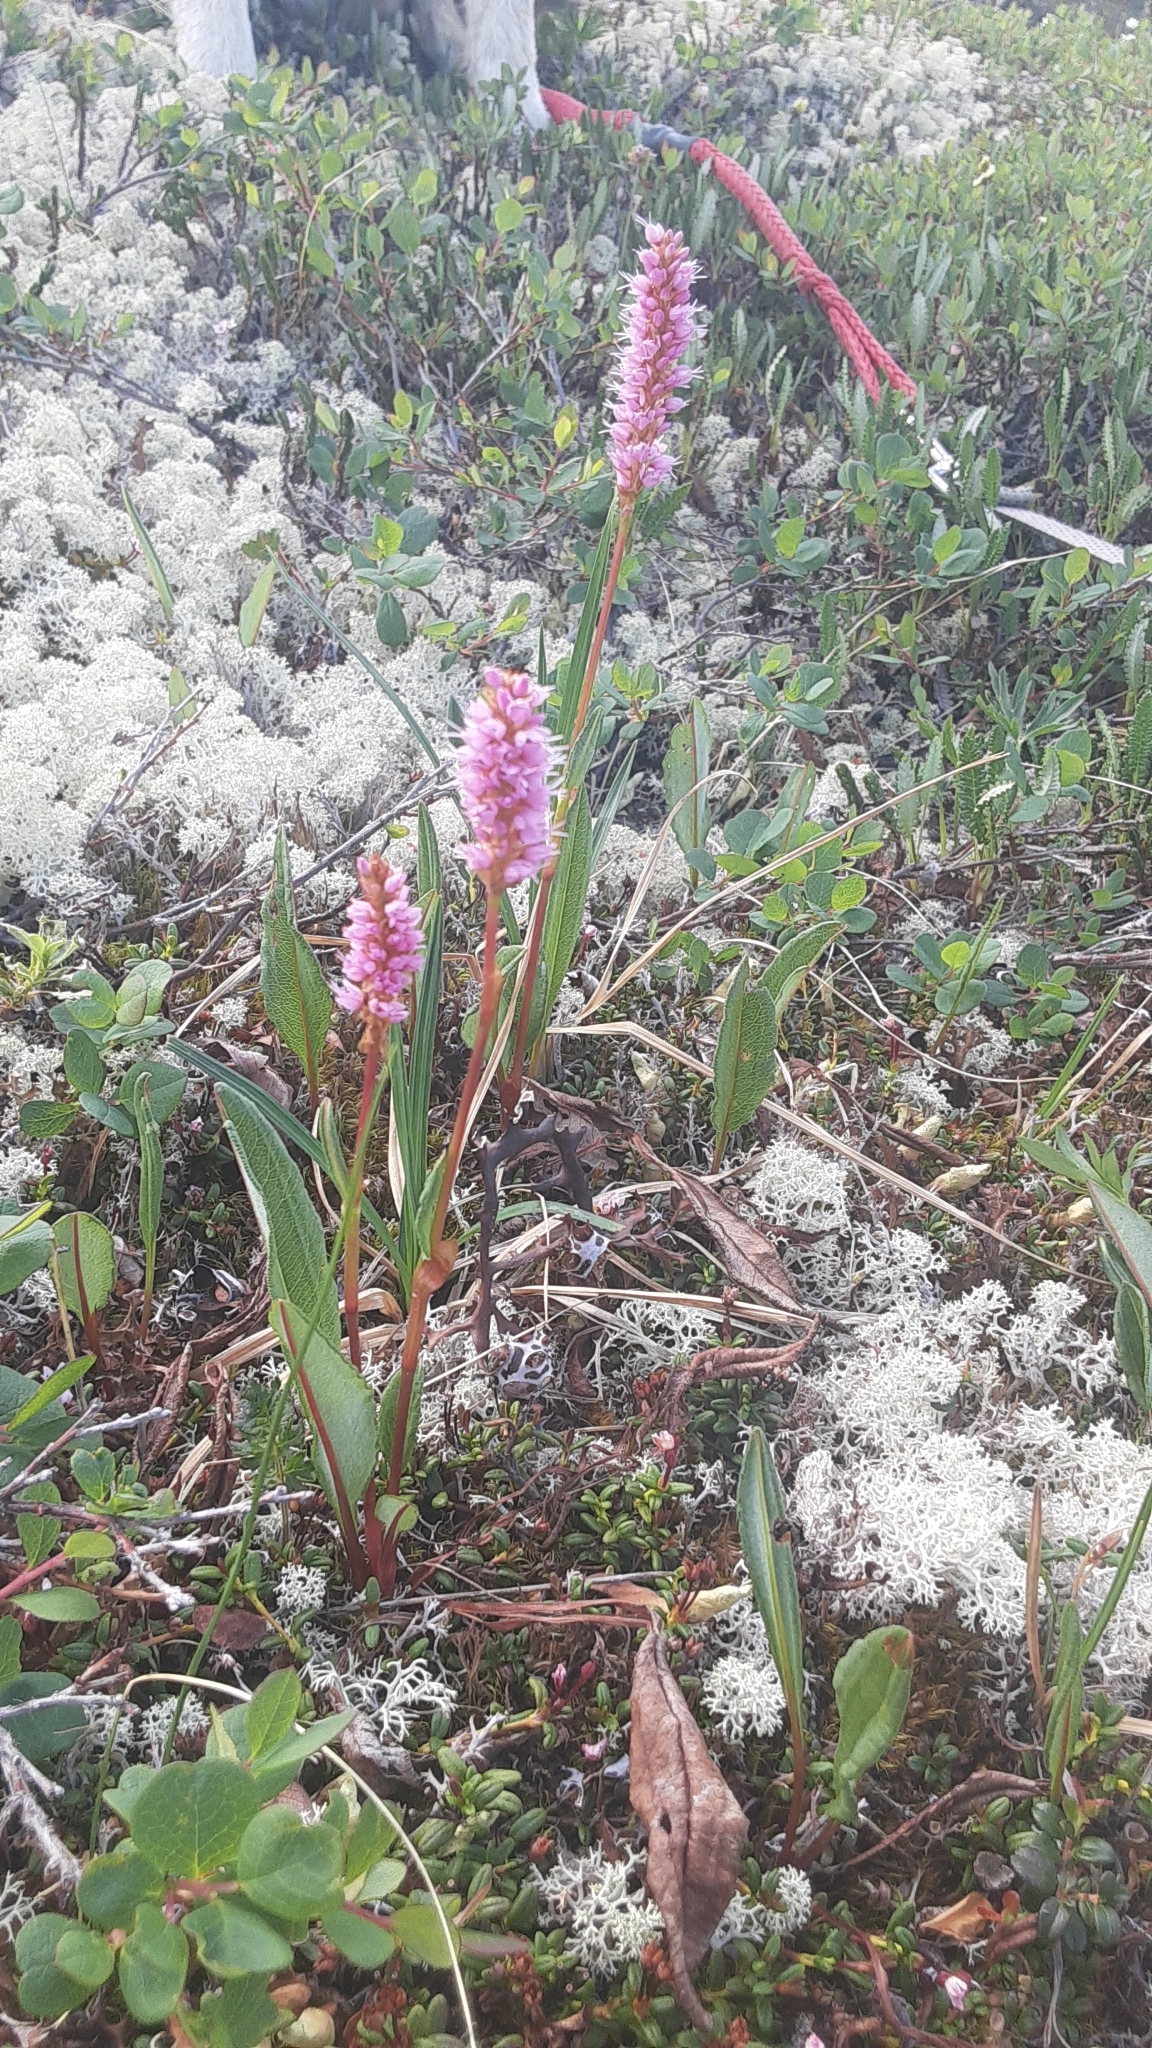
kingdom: Plantae
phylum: Tracheophyta
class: Magnoliopsida
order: Caryophyllales
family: Polygonaceae
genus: Bistorta
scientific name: Bistorta plumosa
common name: Meadow bistort
